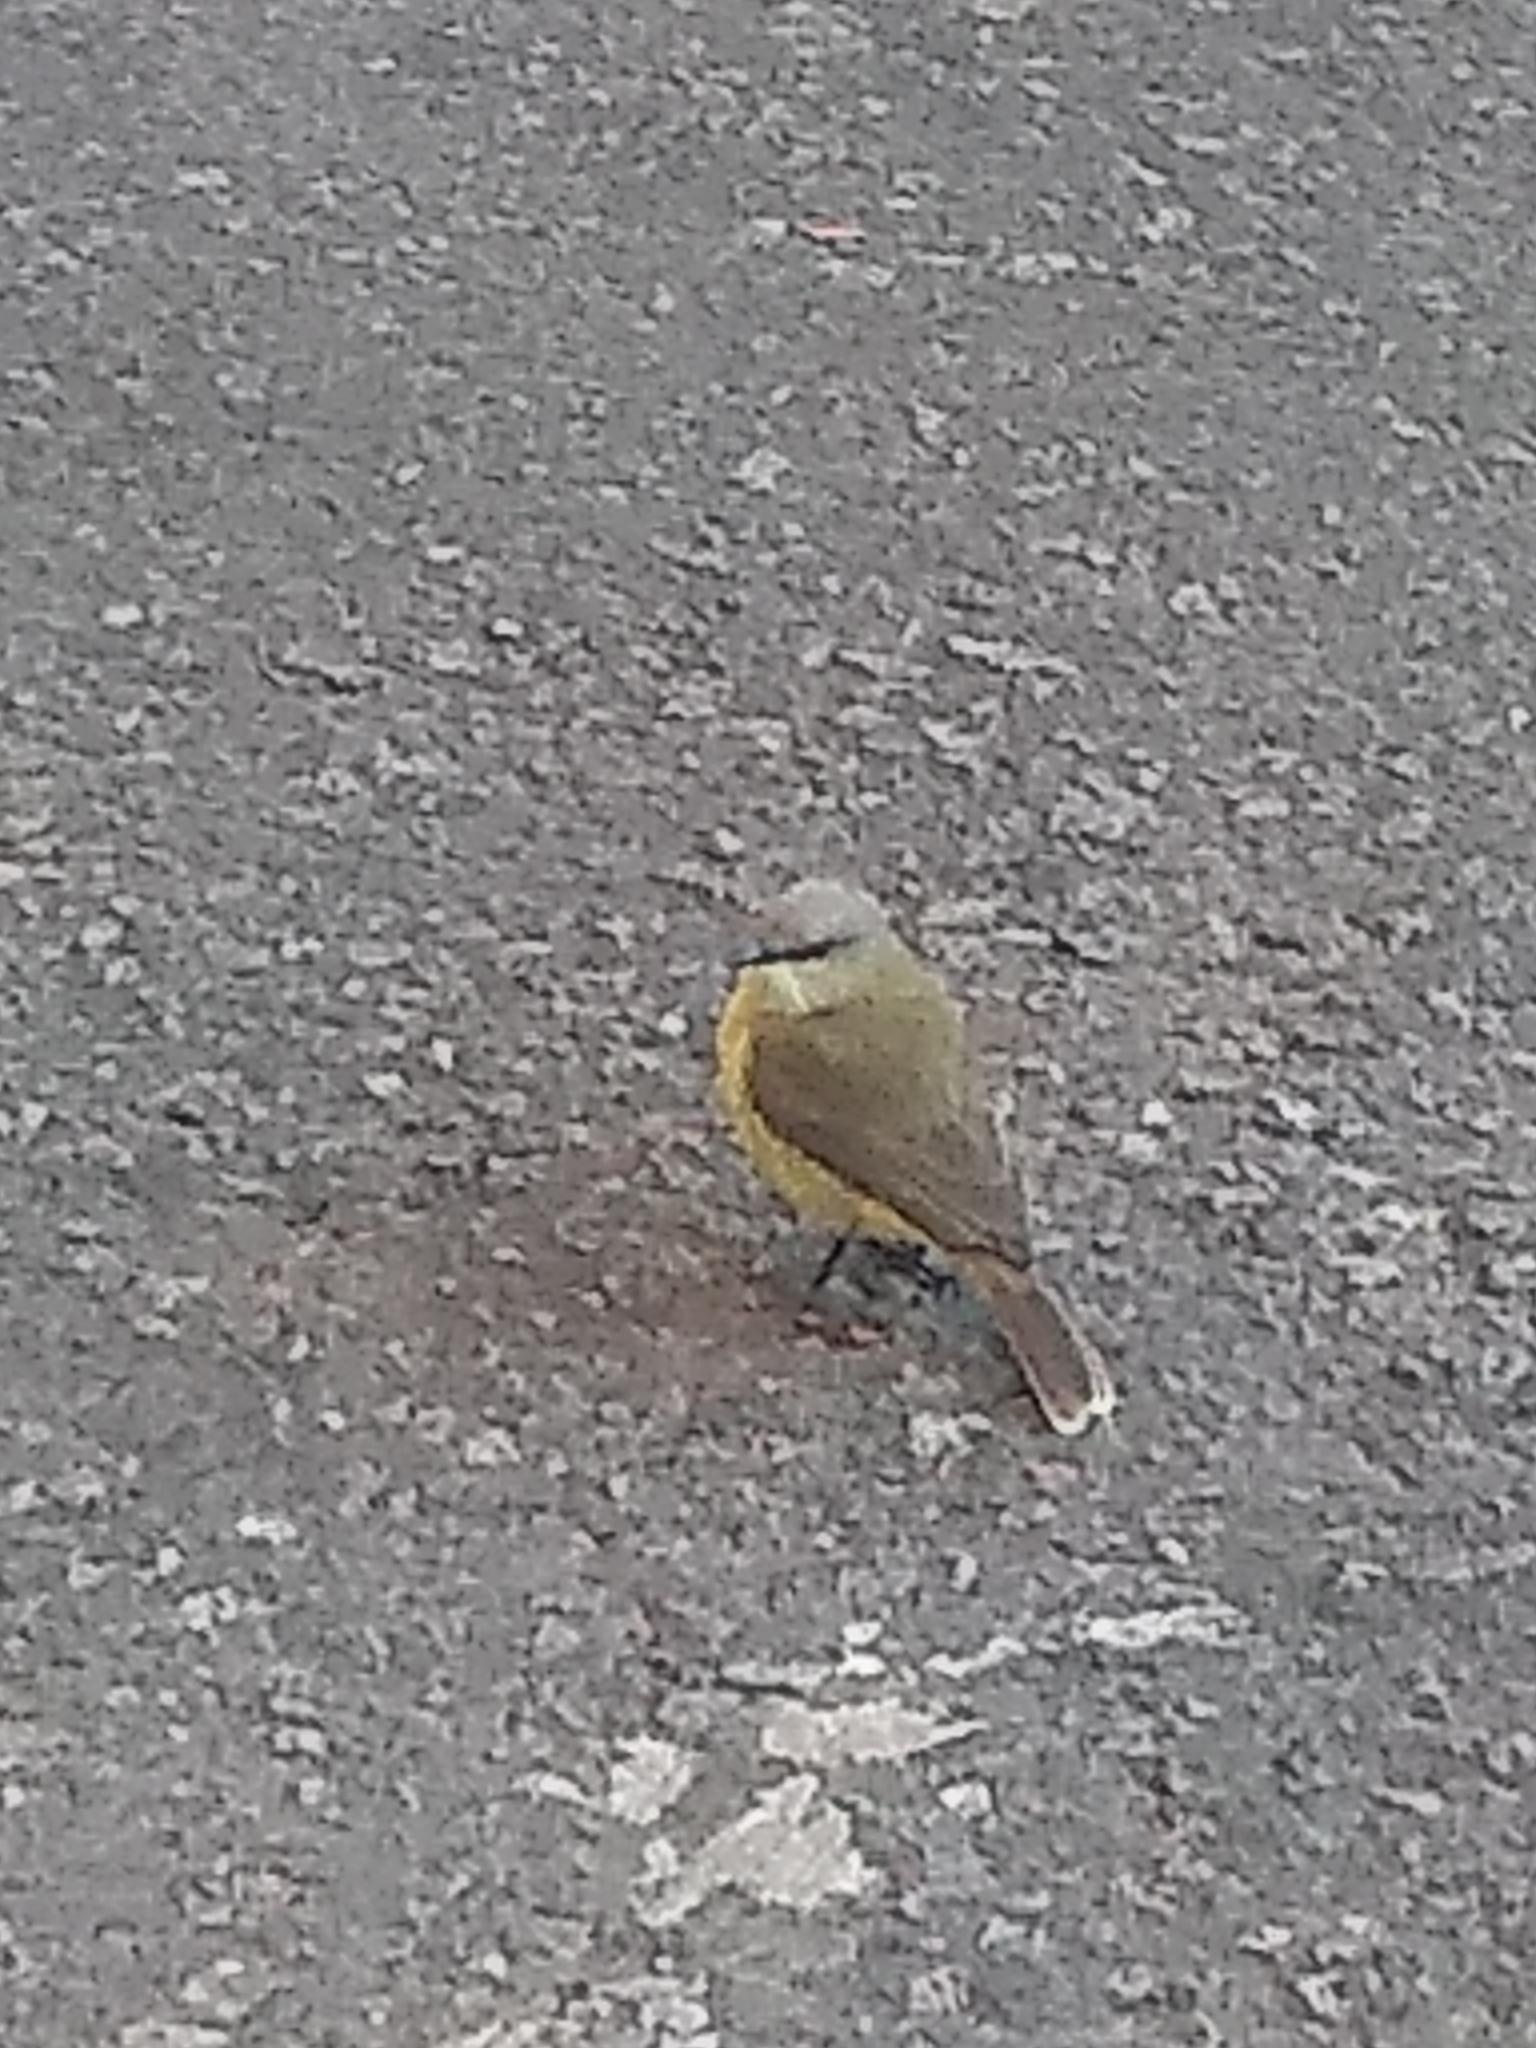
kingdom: Animalia
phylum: Chordata
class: Aves
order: Passeriformes
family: Tyrannidae
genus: Machetornis
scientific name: Machetornis rixosa
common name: Cattle tyrant
